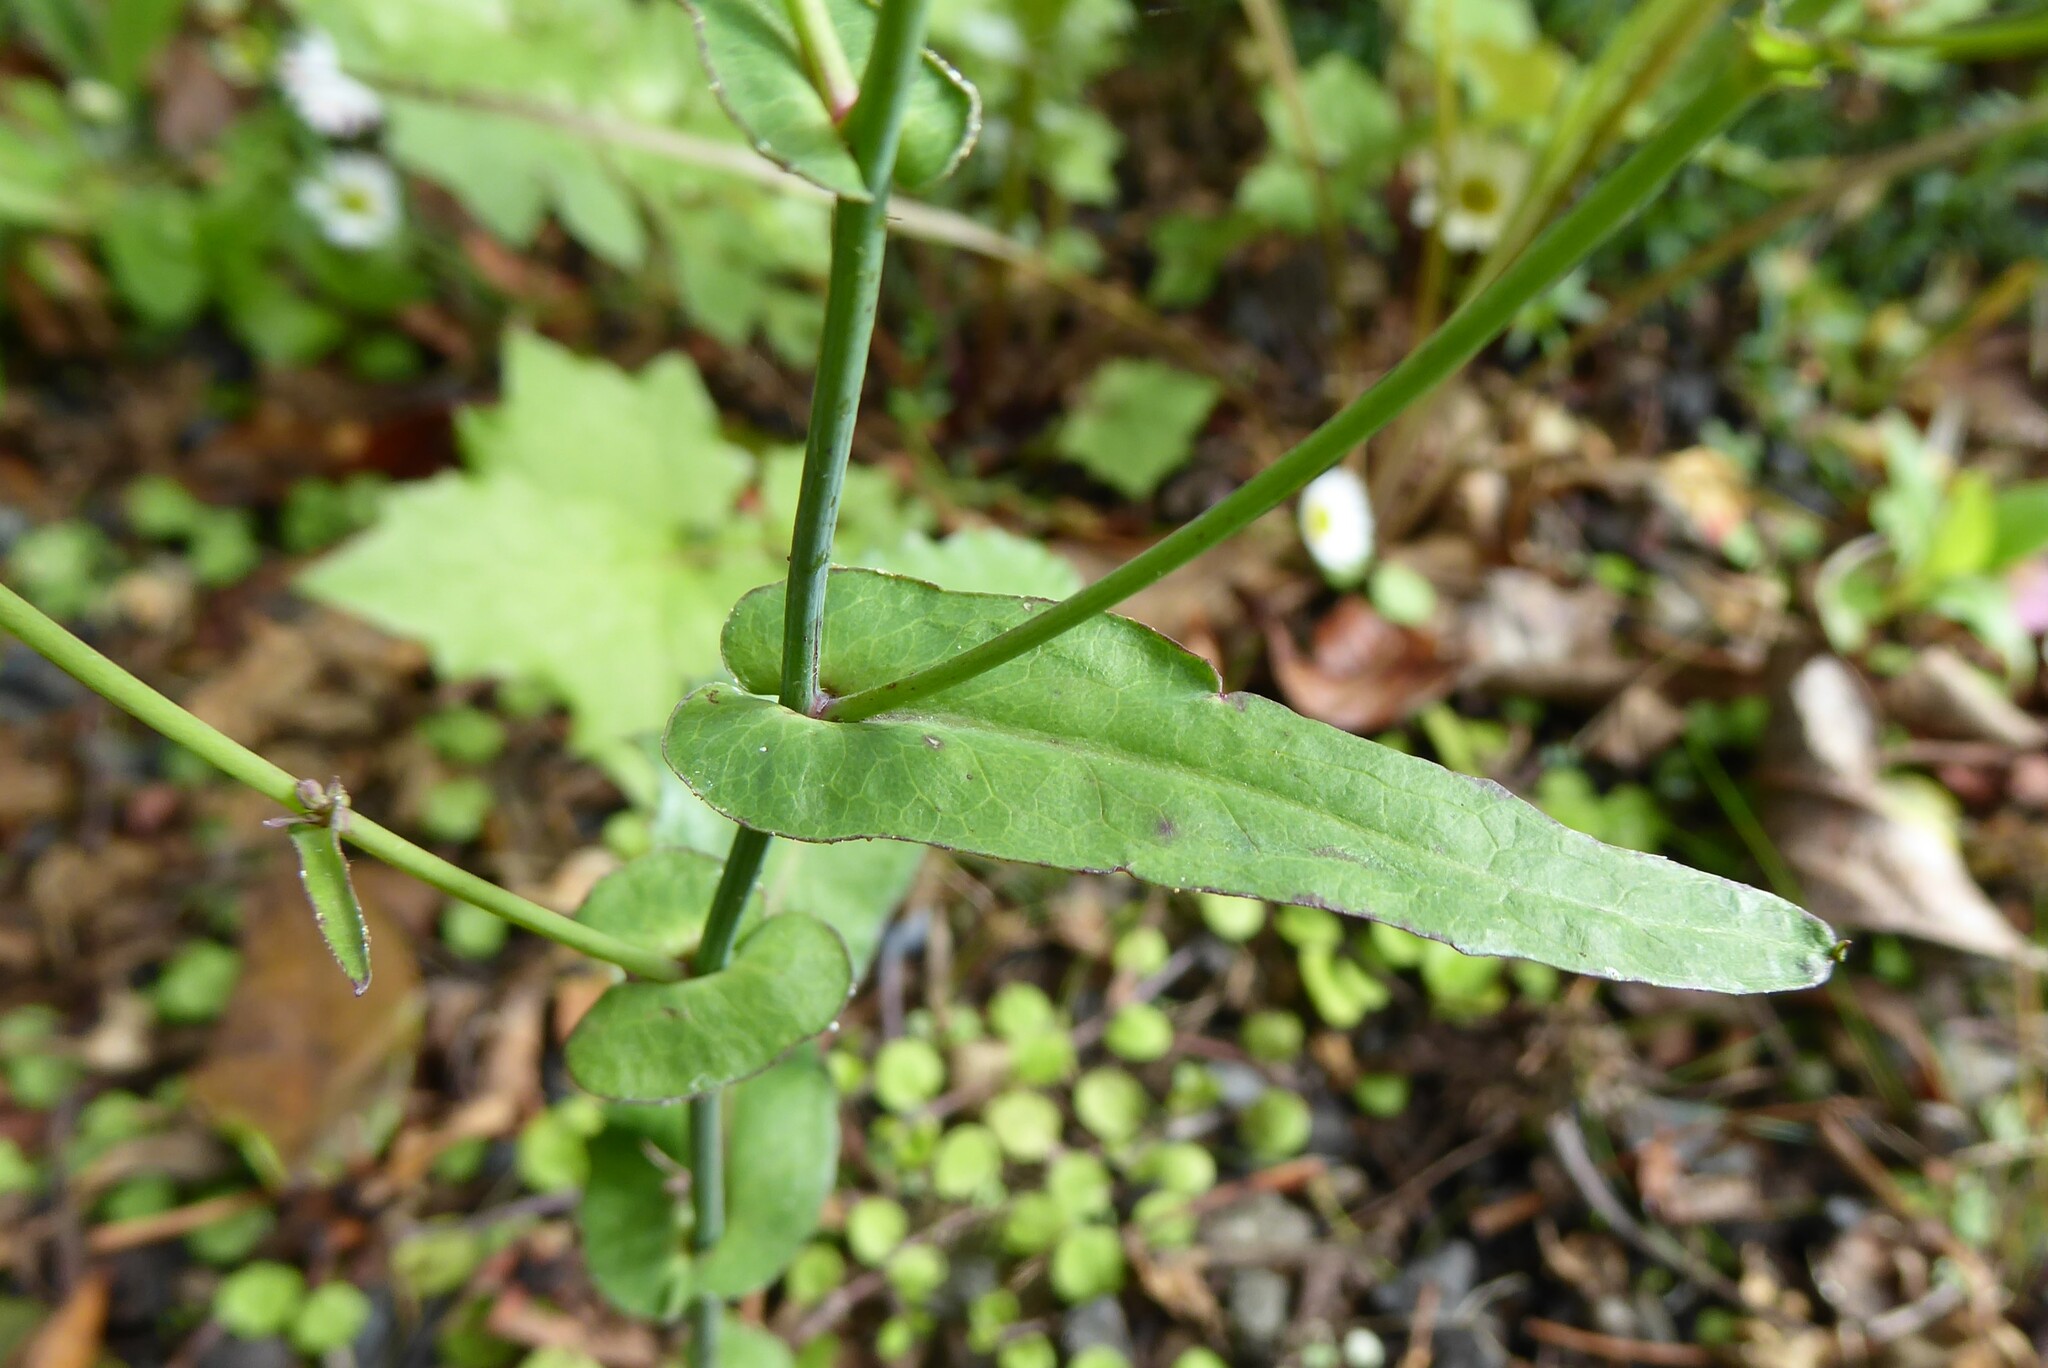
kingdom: Plantae
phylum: Tracheophyta
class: Magnoliopsida
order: Asterales
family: Asteraceae
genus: Mycelis
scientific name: Mycelis muralis
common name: Wall lettuce
